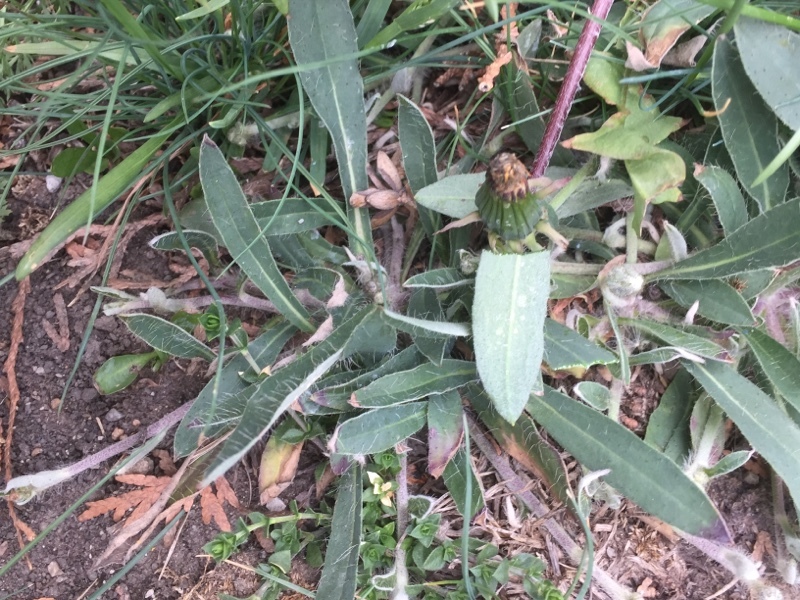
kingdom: Plantae
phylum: Tracheophyta
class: Magnoliopsida
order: Asterales
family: Asteraceae
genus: Pilosella
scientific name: Pilosella officinarum
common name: Mouse-ear hawkweed
